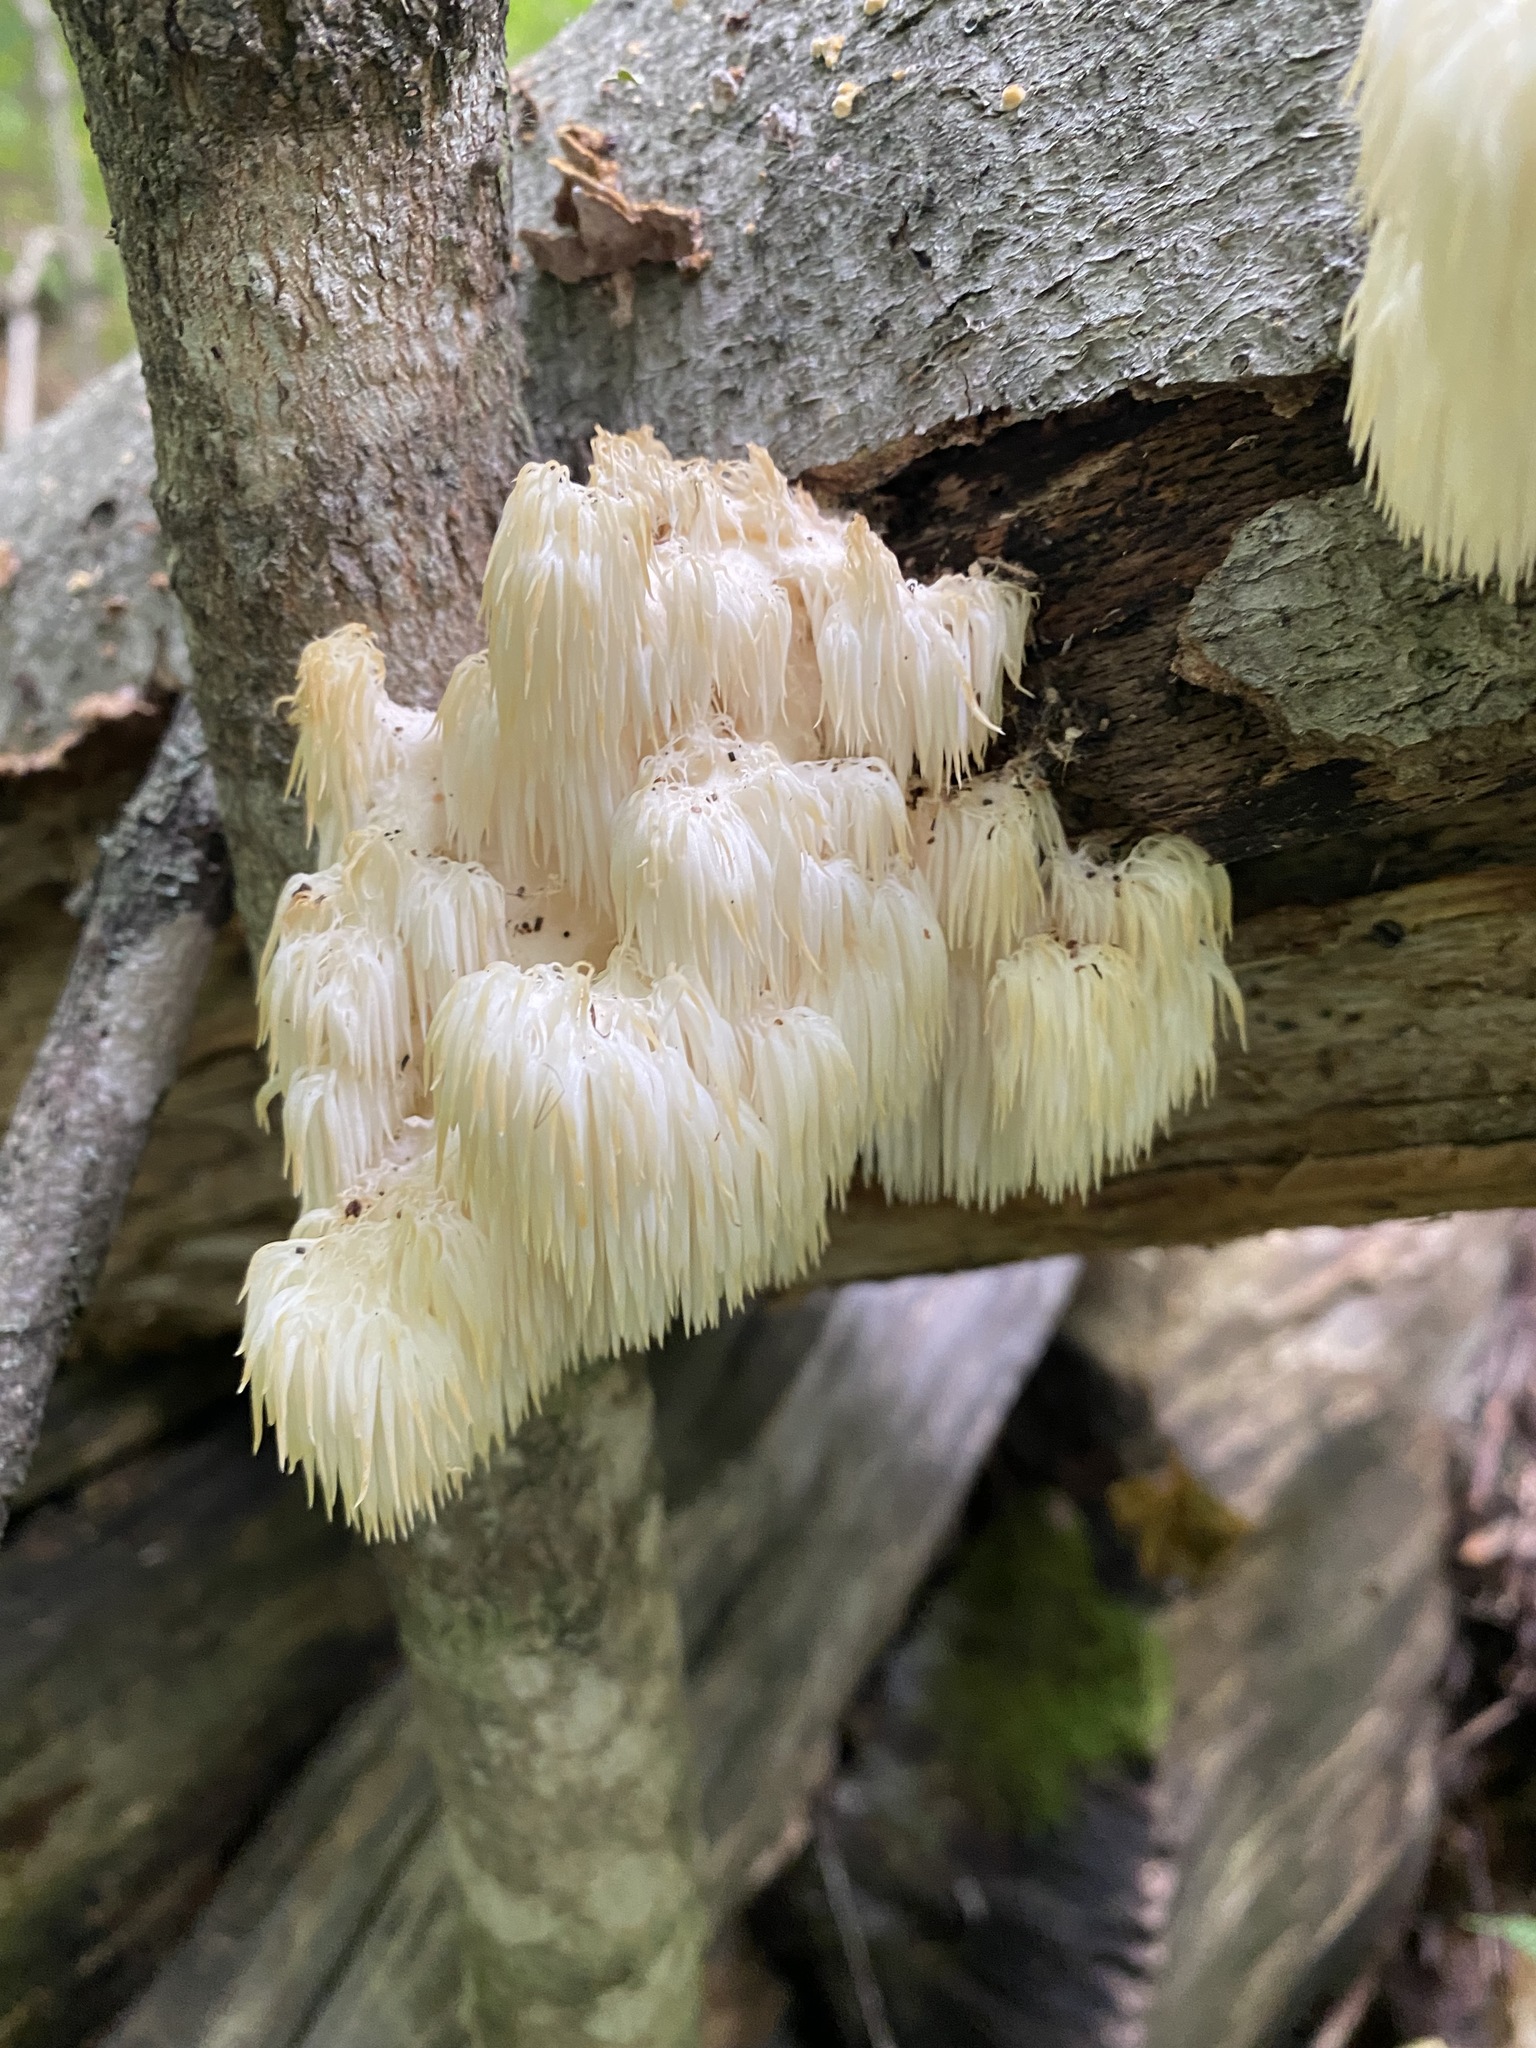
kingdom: Fungi
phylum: Basidiomycota
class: Agaricomycetes
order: Russulales
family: Hericiaceae
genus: Hericium
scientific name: Hericium americanum
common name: Bear's head tooth
